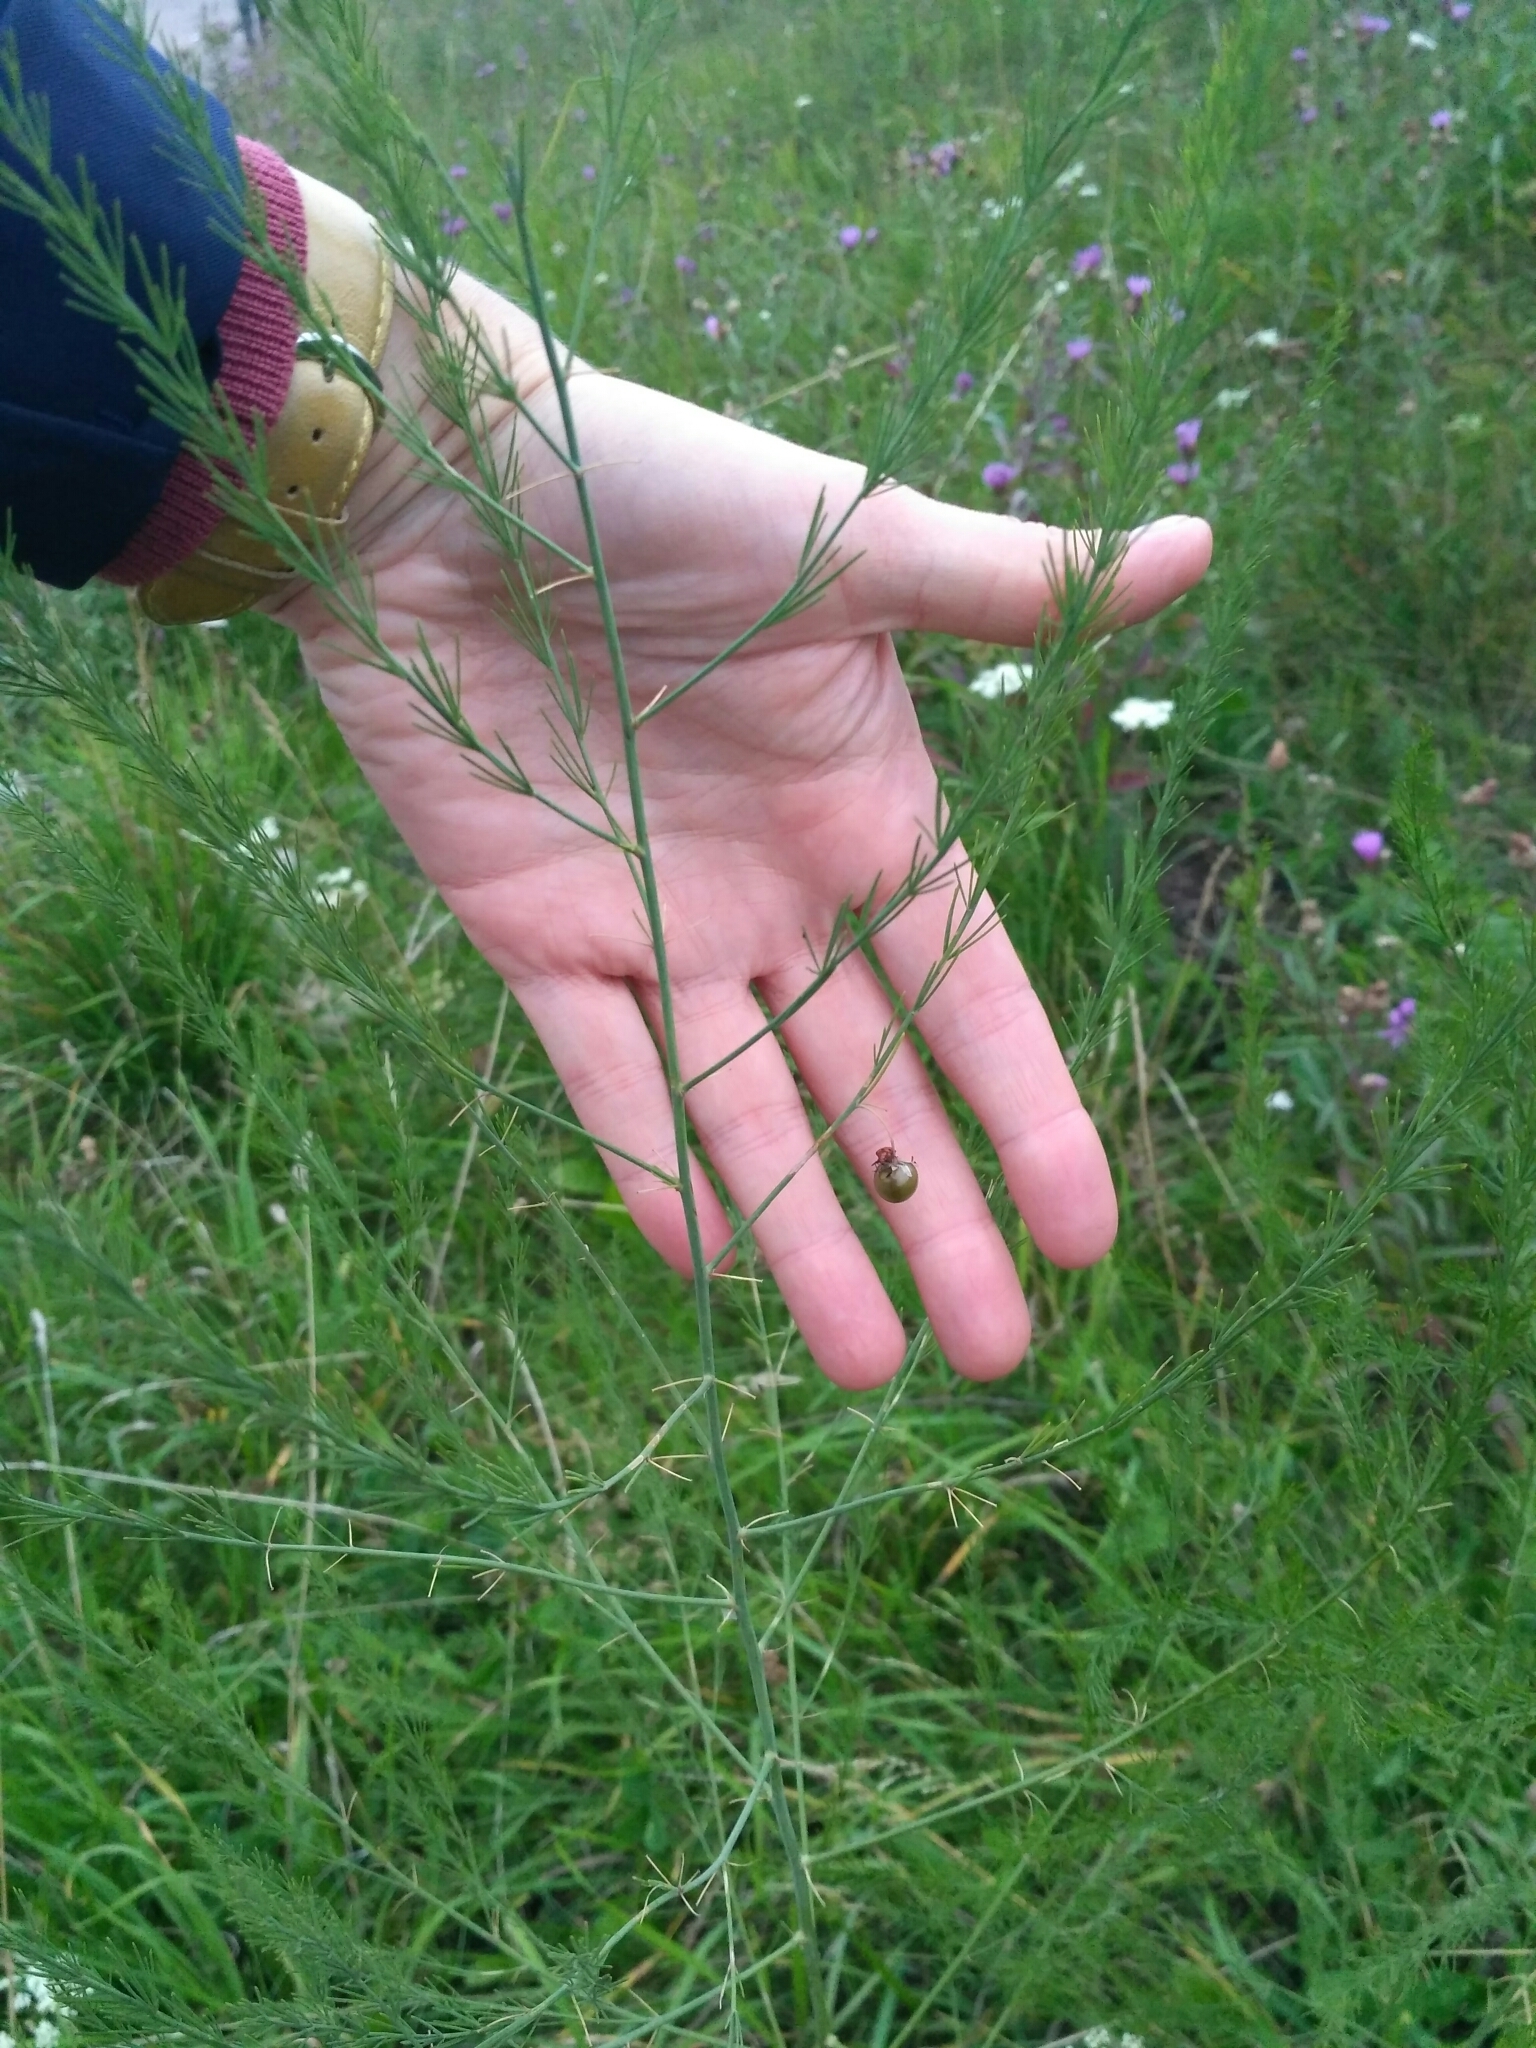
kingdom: Plantae
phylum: Tracheophyta
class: Liliopsida
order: Asparagales
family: Asparagaceae
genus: Asparagus
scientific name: Asparagus officinalis
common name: Garden asparagus
